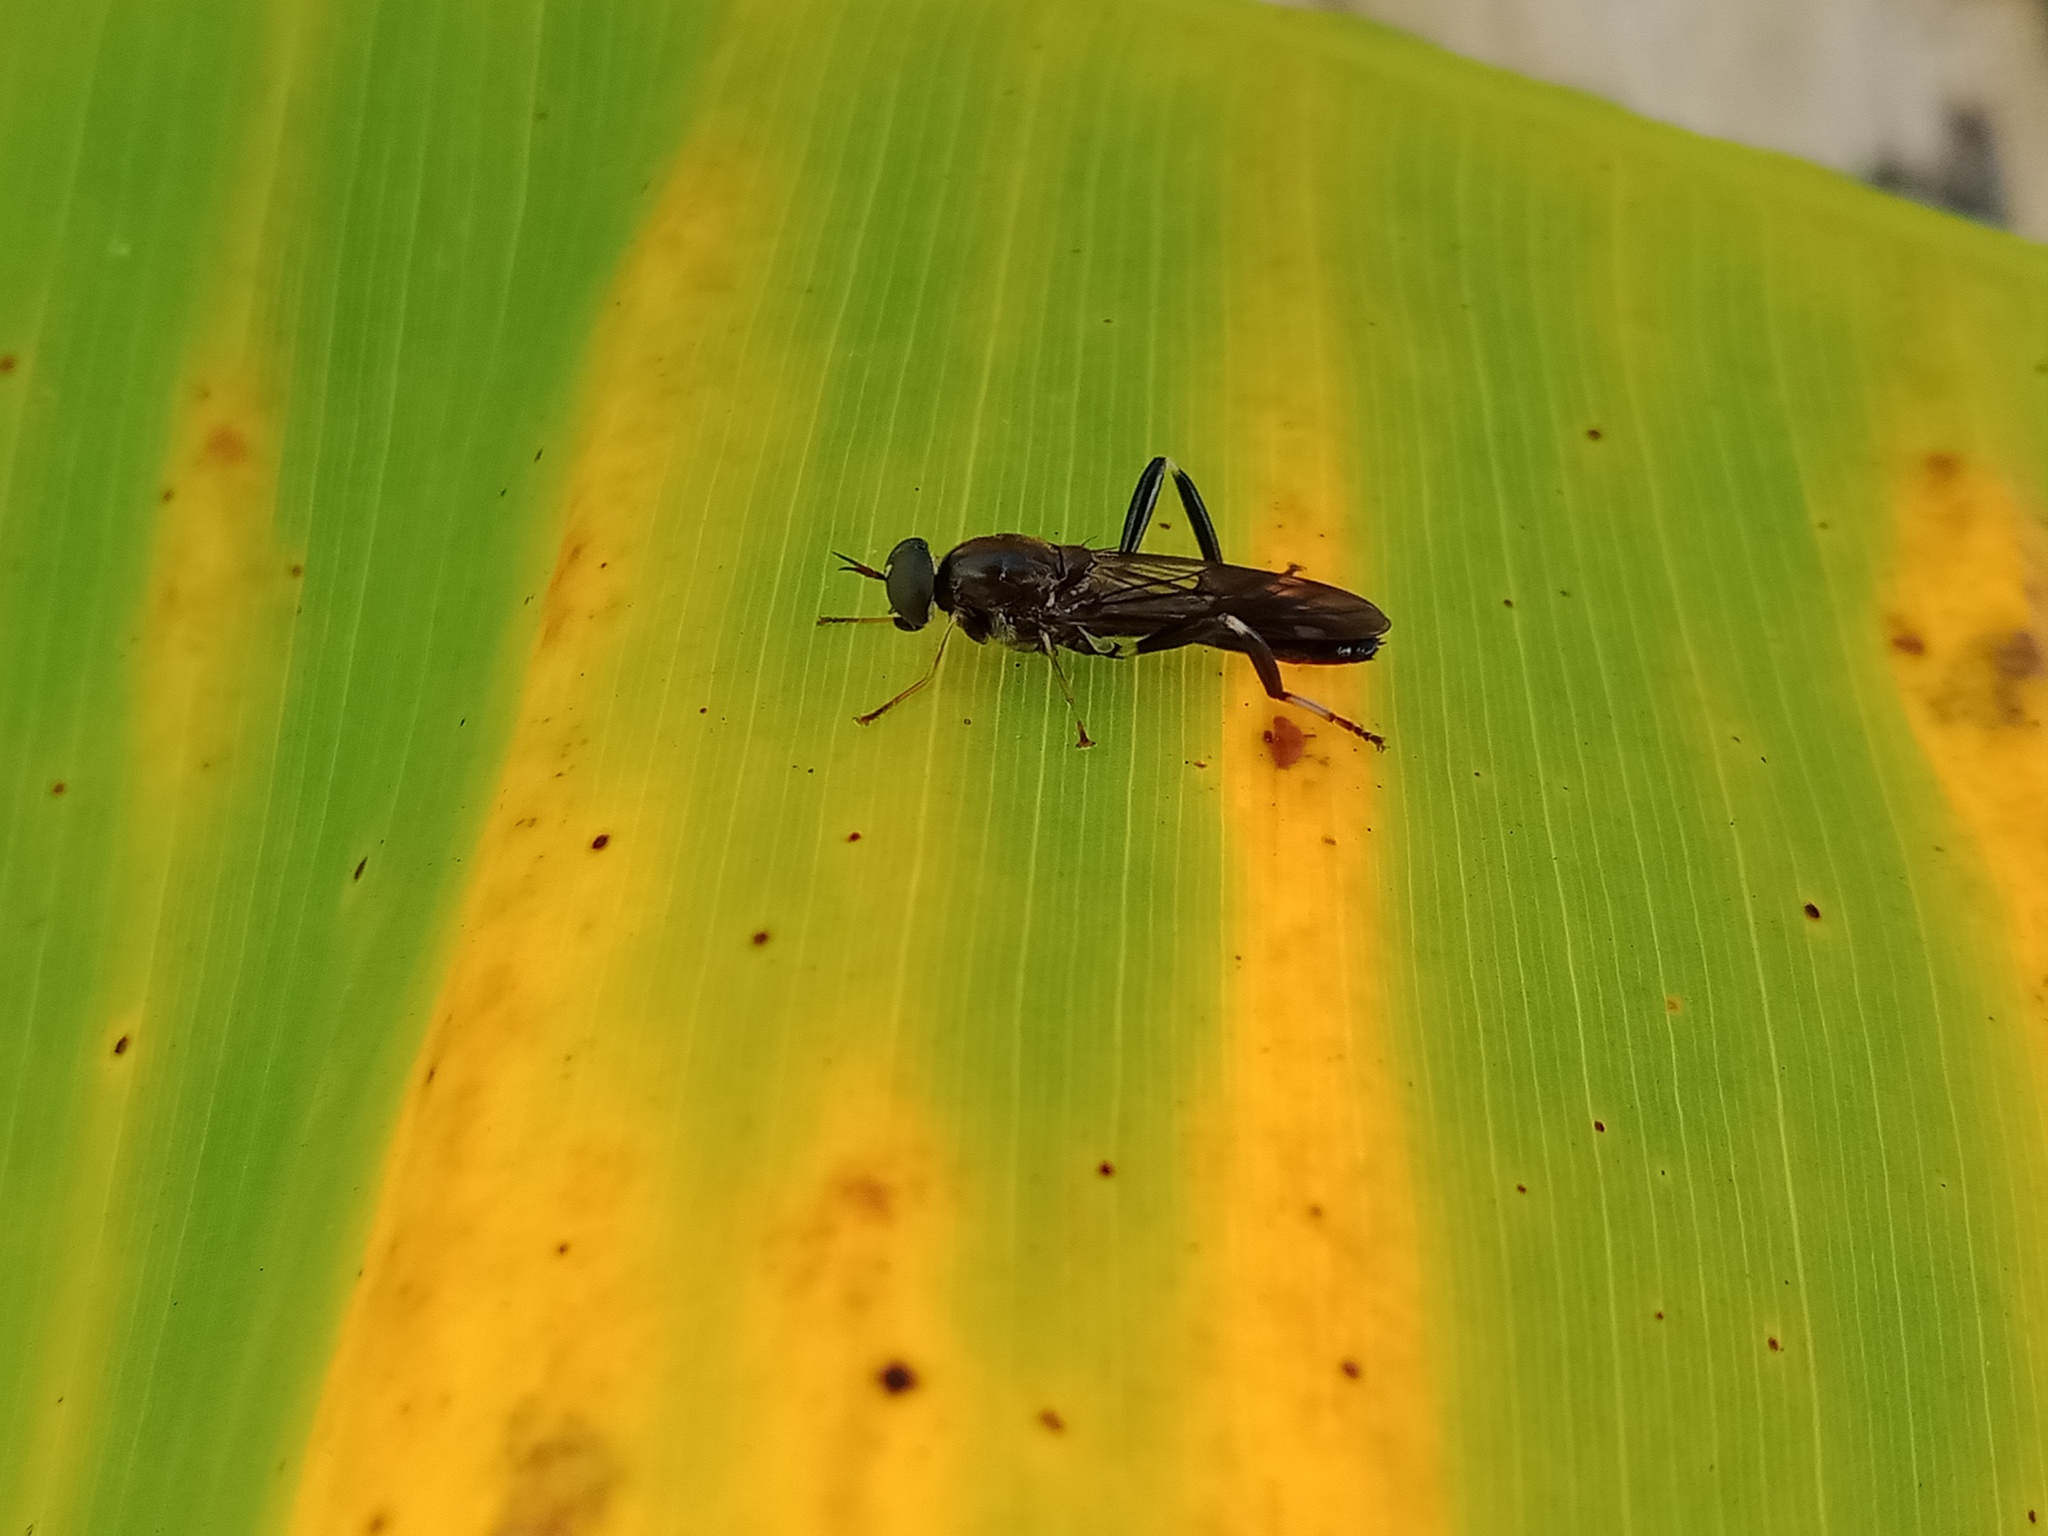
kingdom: Animalia
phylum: Arthropoda
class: Insecta
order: Diptera
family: Stratiomyidae
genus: Exaireta
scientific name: Exaireta spinigera
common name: Blue soldier fly
